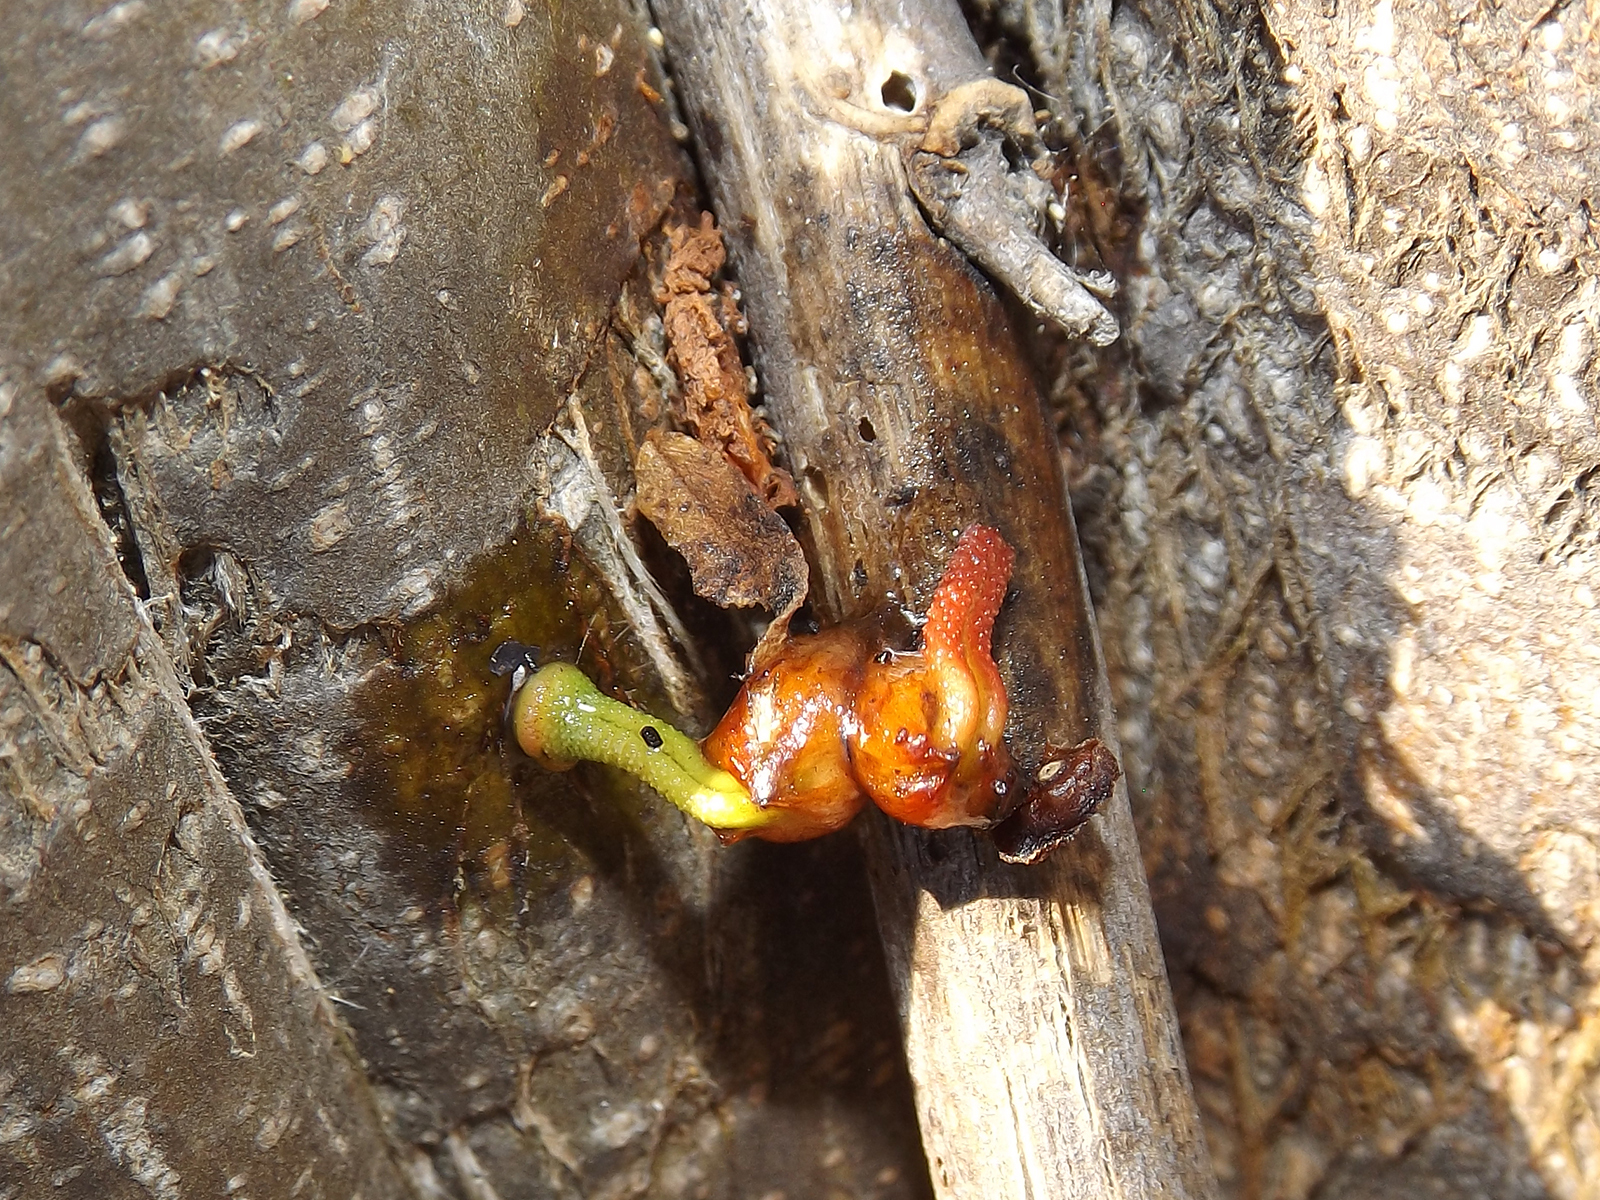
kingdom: Plantae
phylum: Tracheophyta
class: Magnoliopsida
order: Santalales
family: Loranthaceae
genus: Tristerix
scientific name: Tristerix corymbosus
